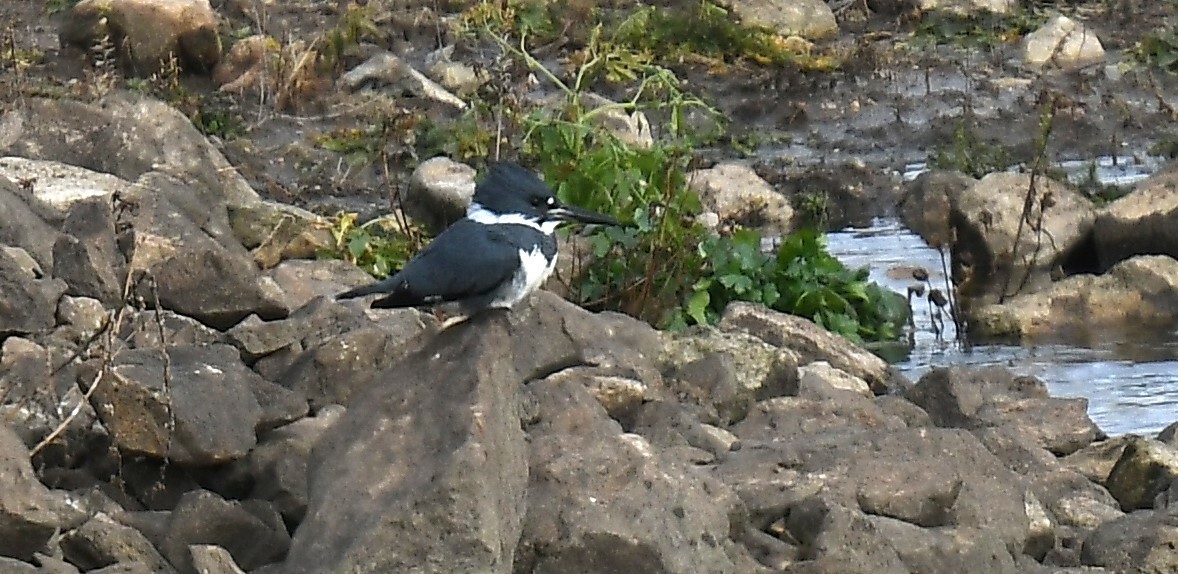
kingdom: Animalia
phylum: Chordata
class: Aves
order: Coraciiformes
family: Alcedinidae
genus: Megaceryle
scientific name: Megaceryle alcyon
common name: Belted kingfisher
